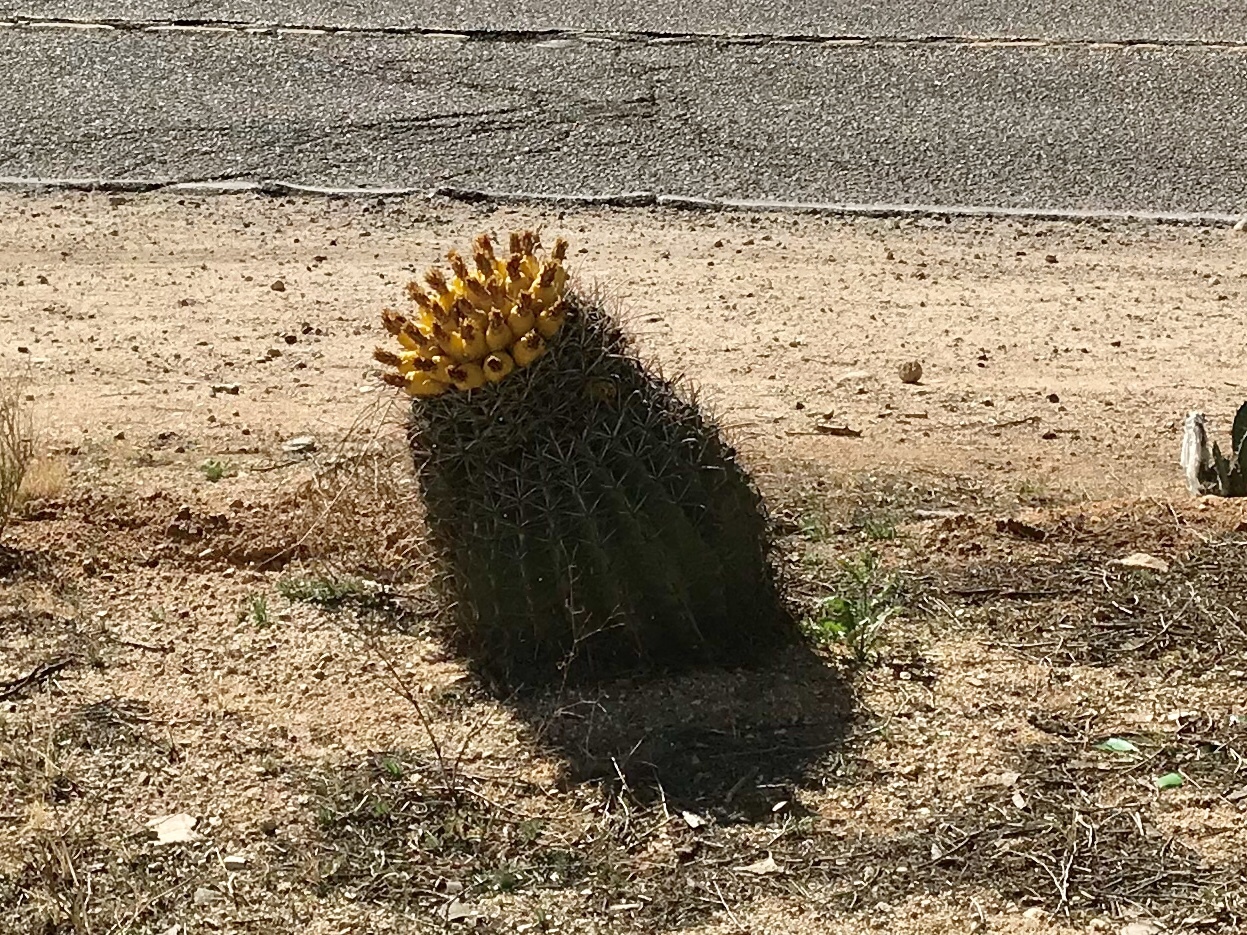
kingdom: Plantae
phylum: Tracheophyta
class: Magnoliopsida
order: Caryophyllales
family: Cactaceae
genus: Ferocactus
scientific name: Ferocactus wislizeni
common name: Candy barrel cactus
